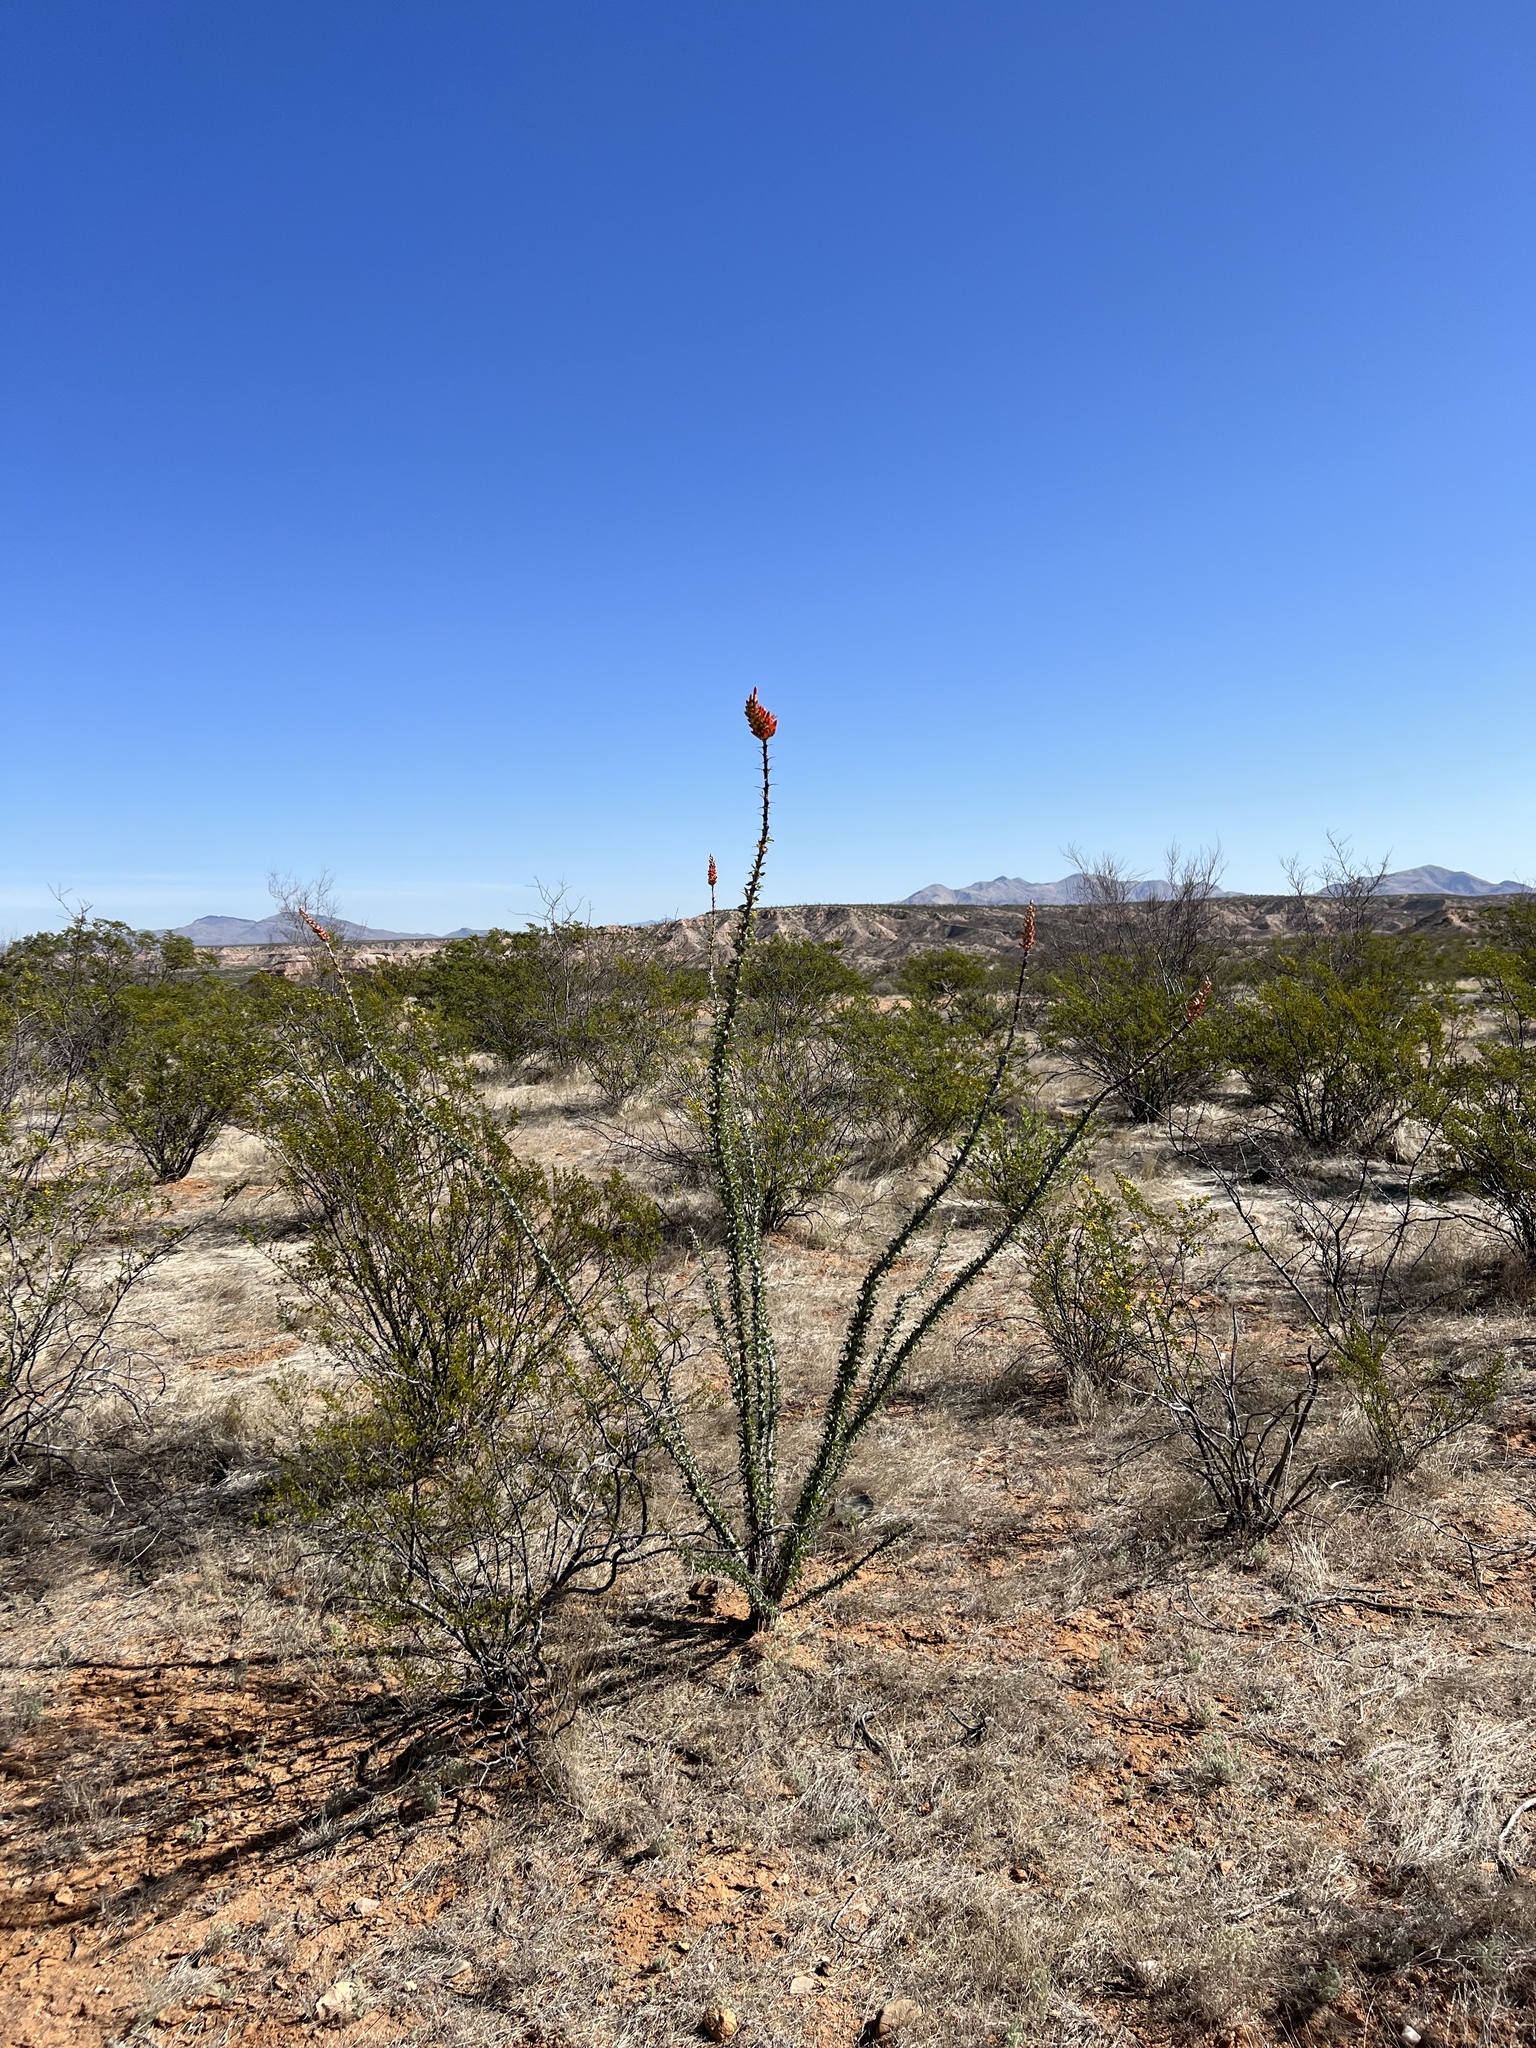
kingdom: Plantae
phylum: Tracheophyta
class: Magnoliopsida
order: Ericales
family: Fouquieriaceae
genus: Fouquieria
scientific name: Fouquieria splendens
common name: Vine-cactus
